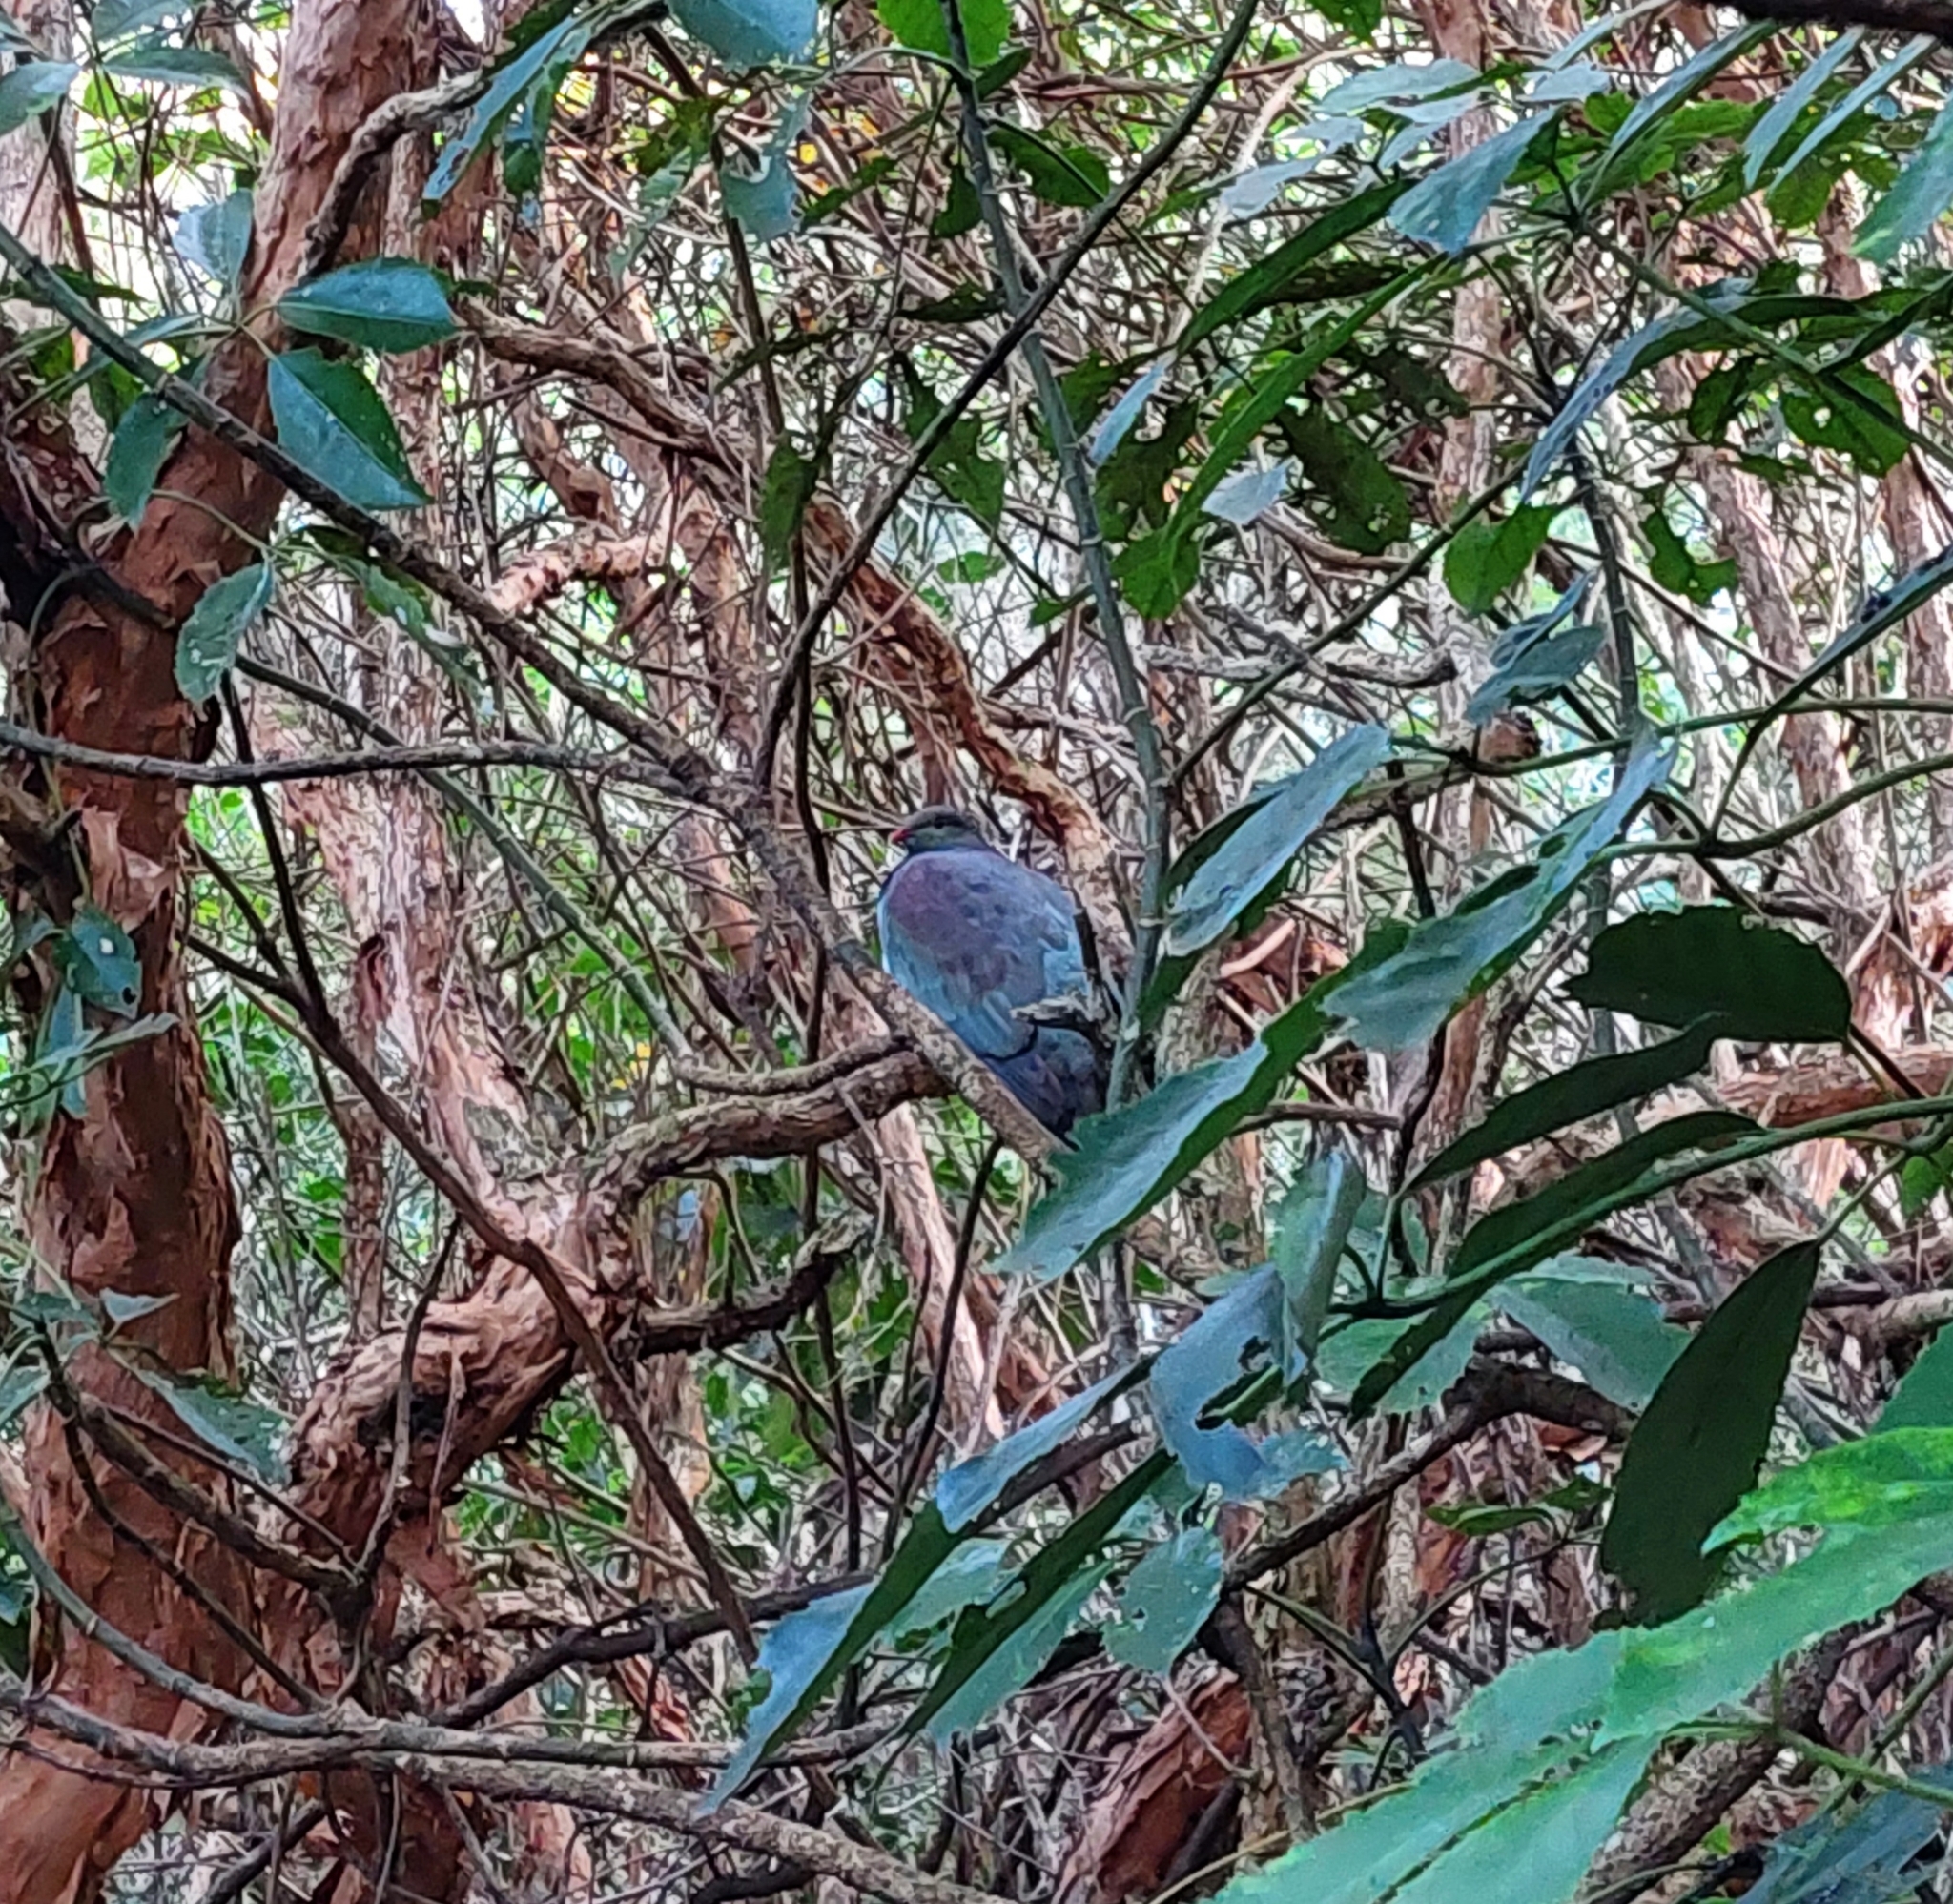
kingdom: Animalia
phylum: Chordata
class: Aves
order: Columbiformes
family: Columbidae
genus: Hemiphaga
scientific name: Hemiphaga novaeseelandiae
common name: New zealand pigeon
